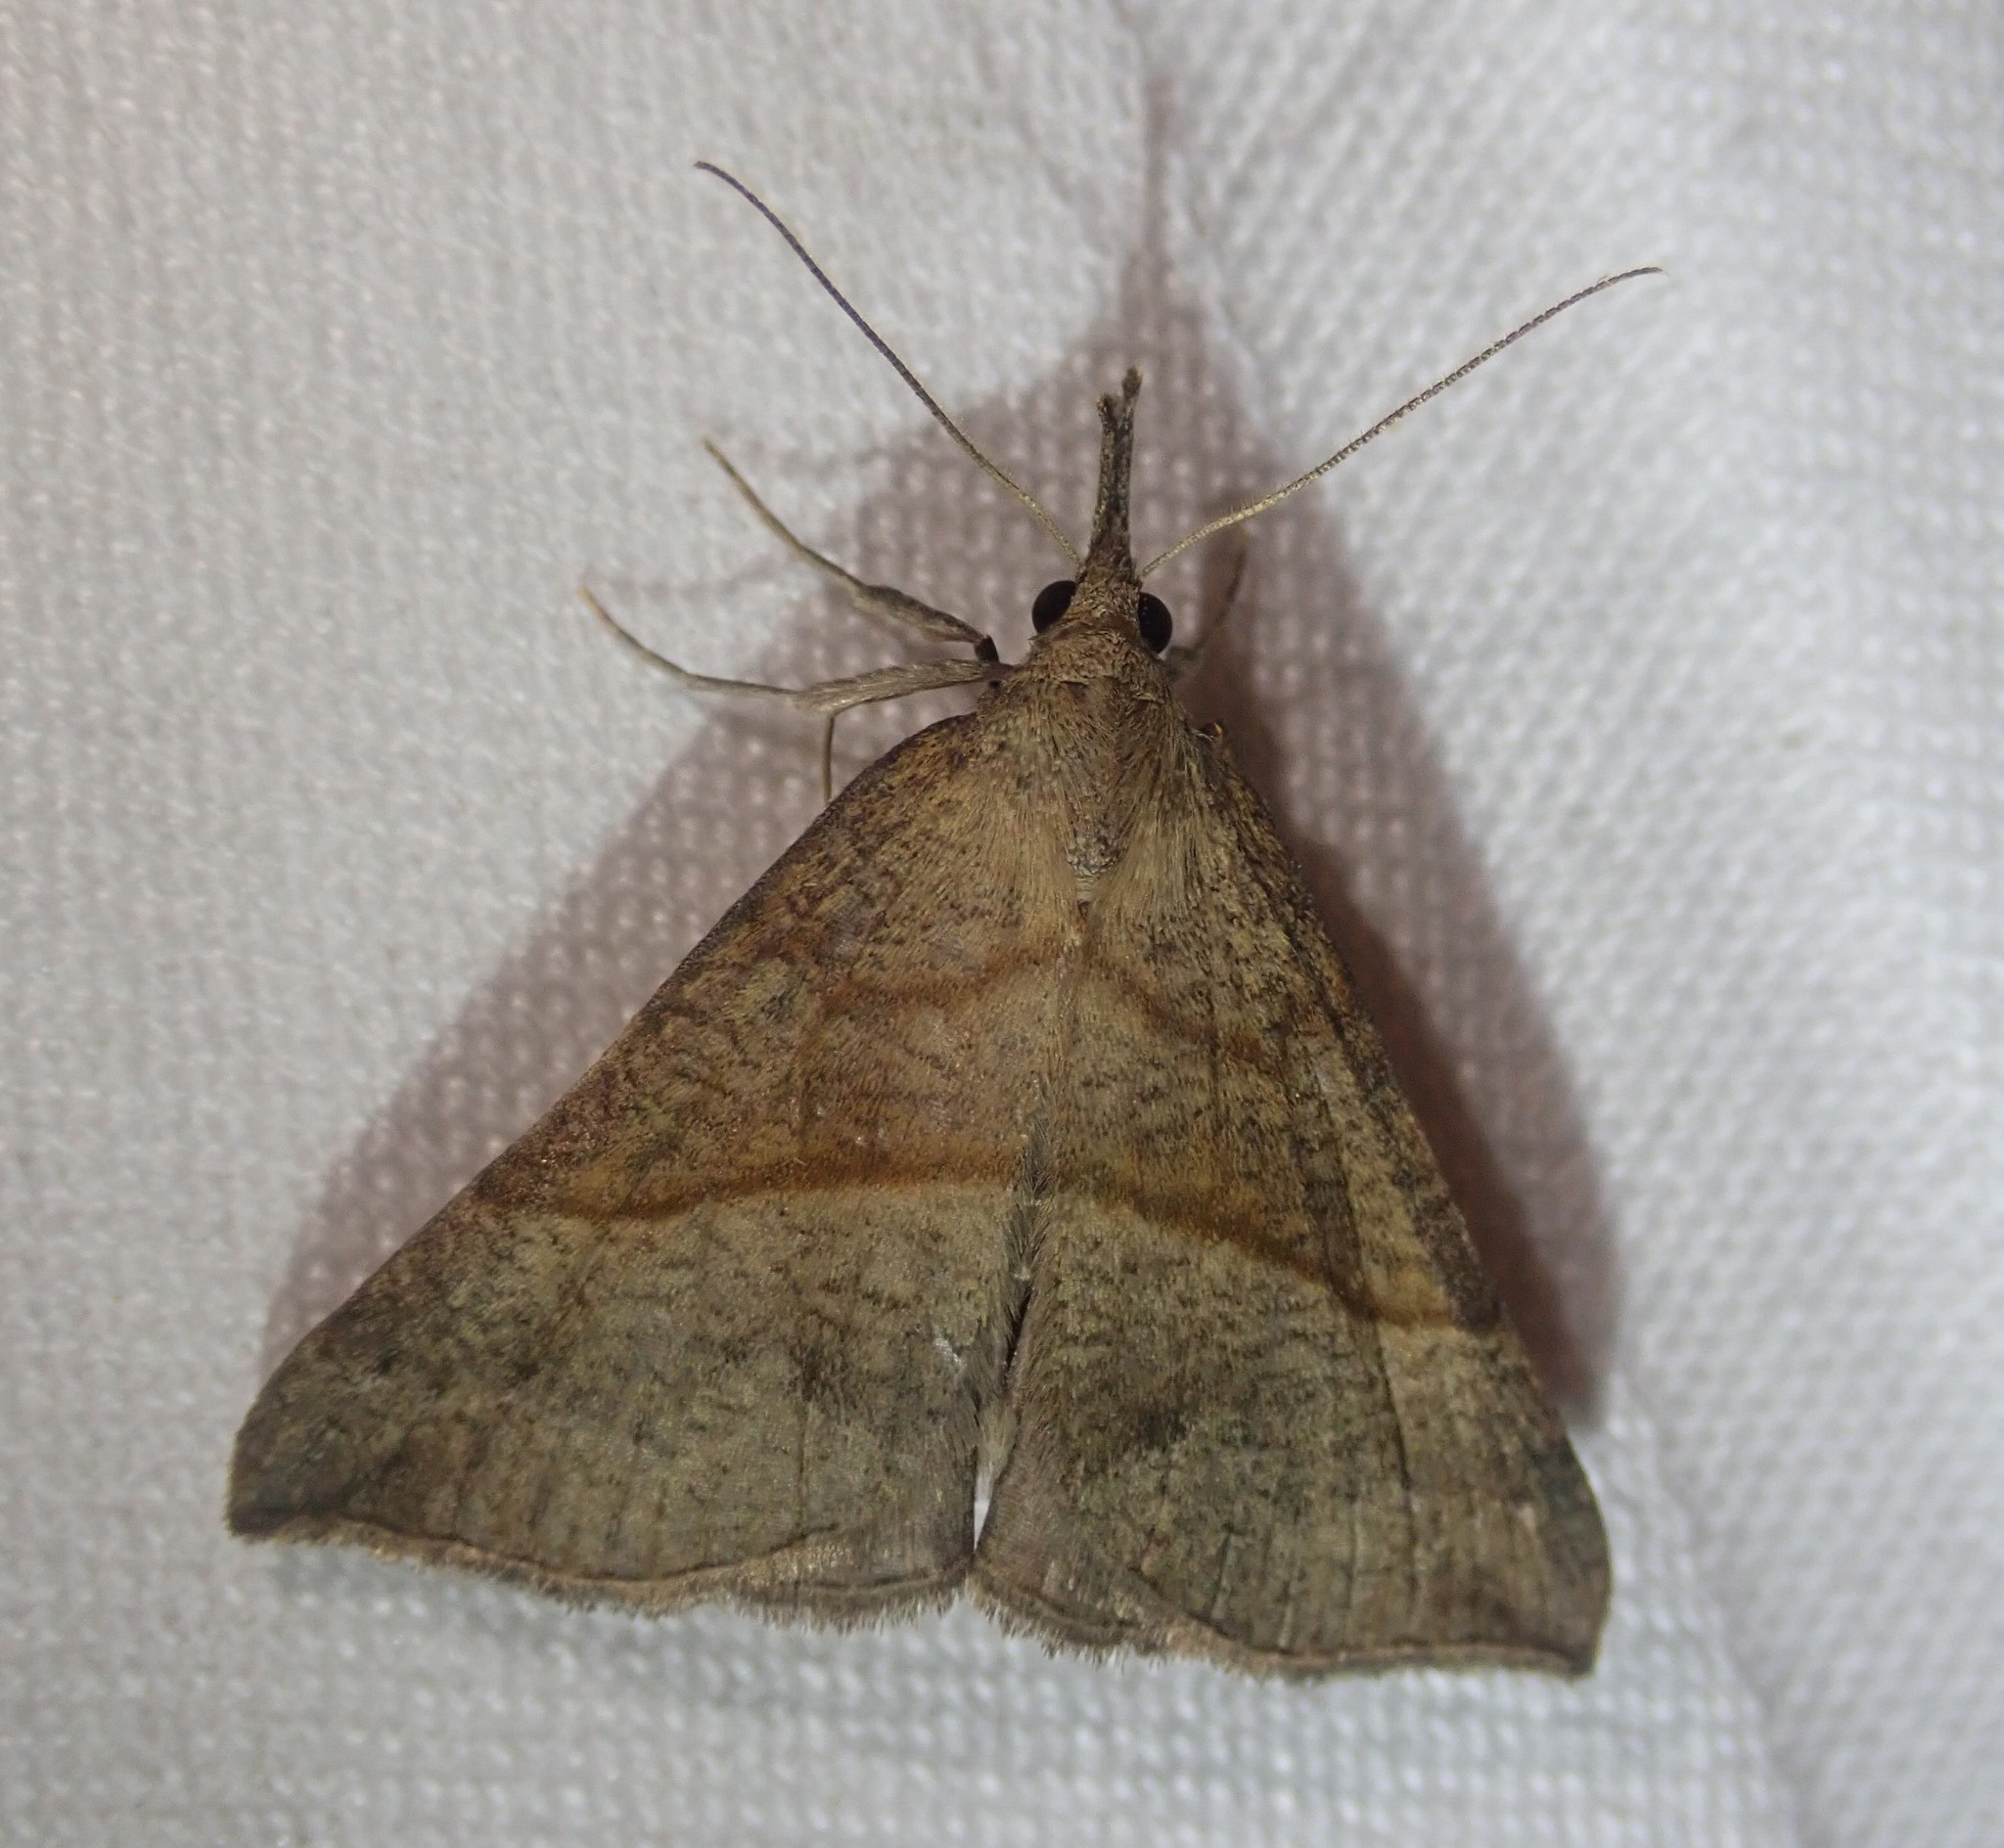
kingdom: Animalia
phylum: Arthropoda
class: Insecta
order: Lepidoptera
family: Erebidae
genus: Hypena
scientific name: Hypena proboscidalis
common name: Snout
